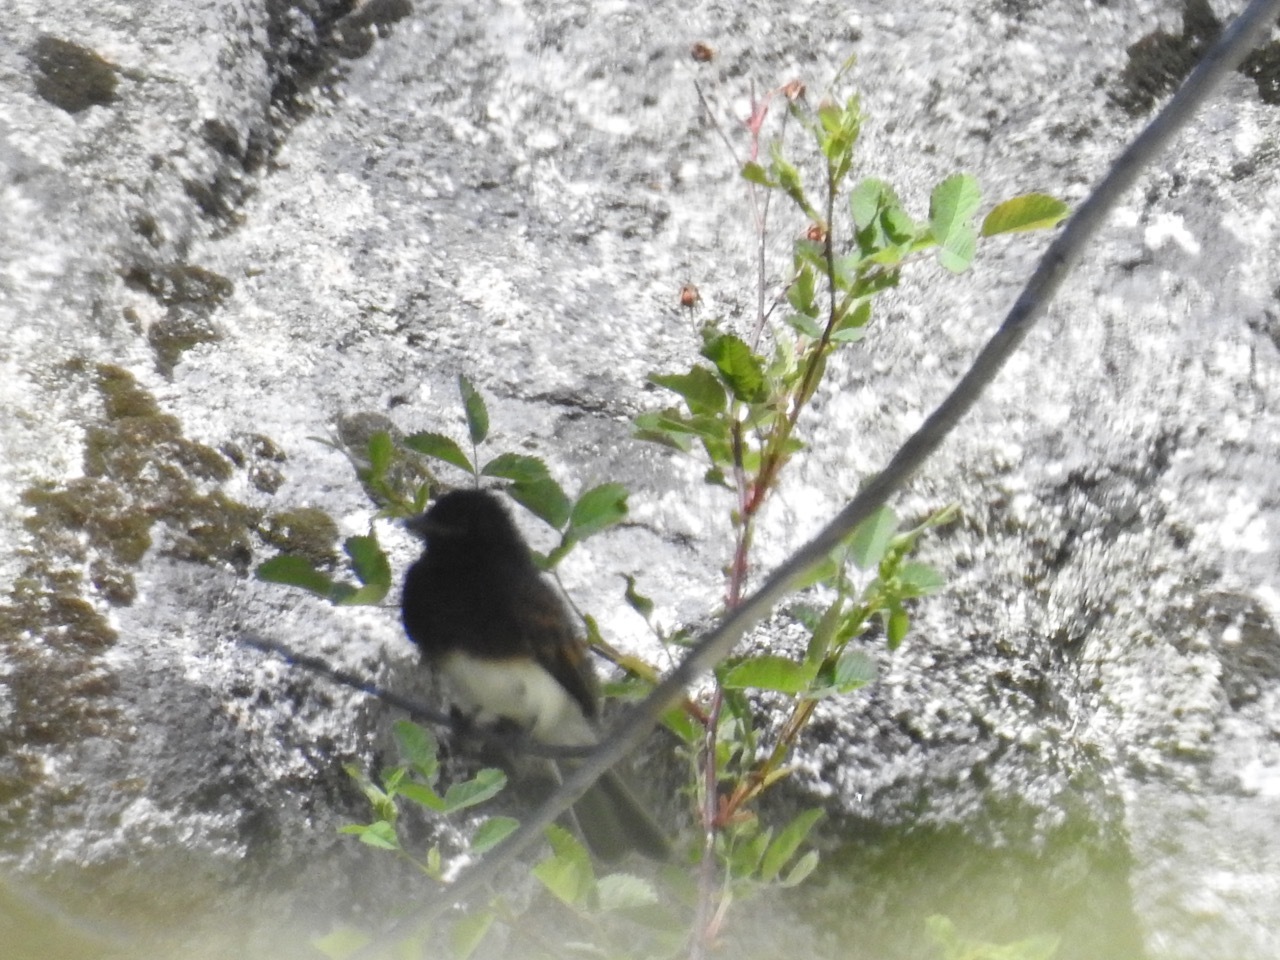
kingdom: Animalia
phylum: Chordata
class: Aves
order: Passeriformes
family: Tyrannidae
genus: Sayornis
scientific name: Sayornis nigricans
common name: Black phoebe
